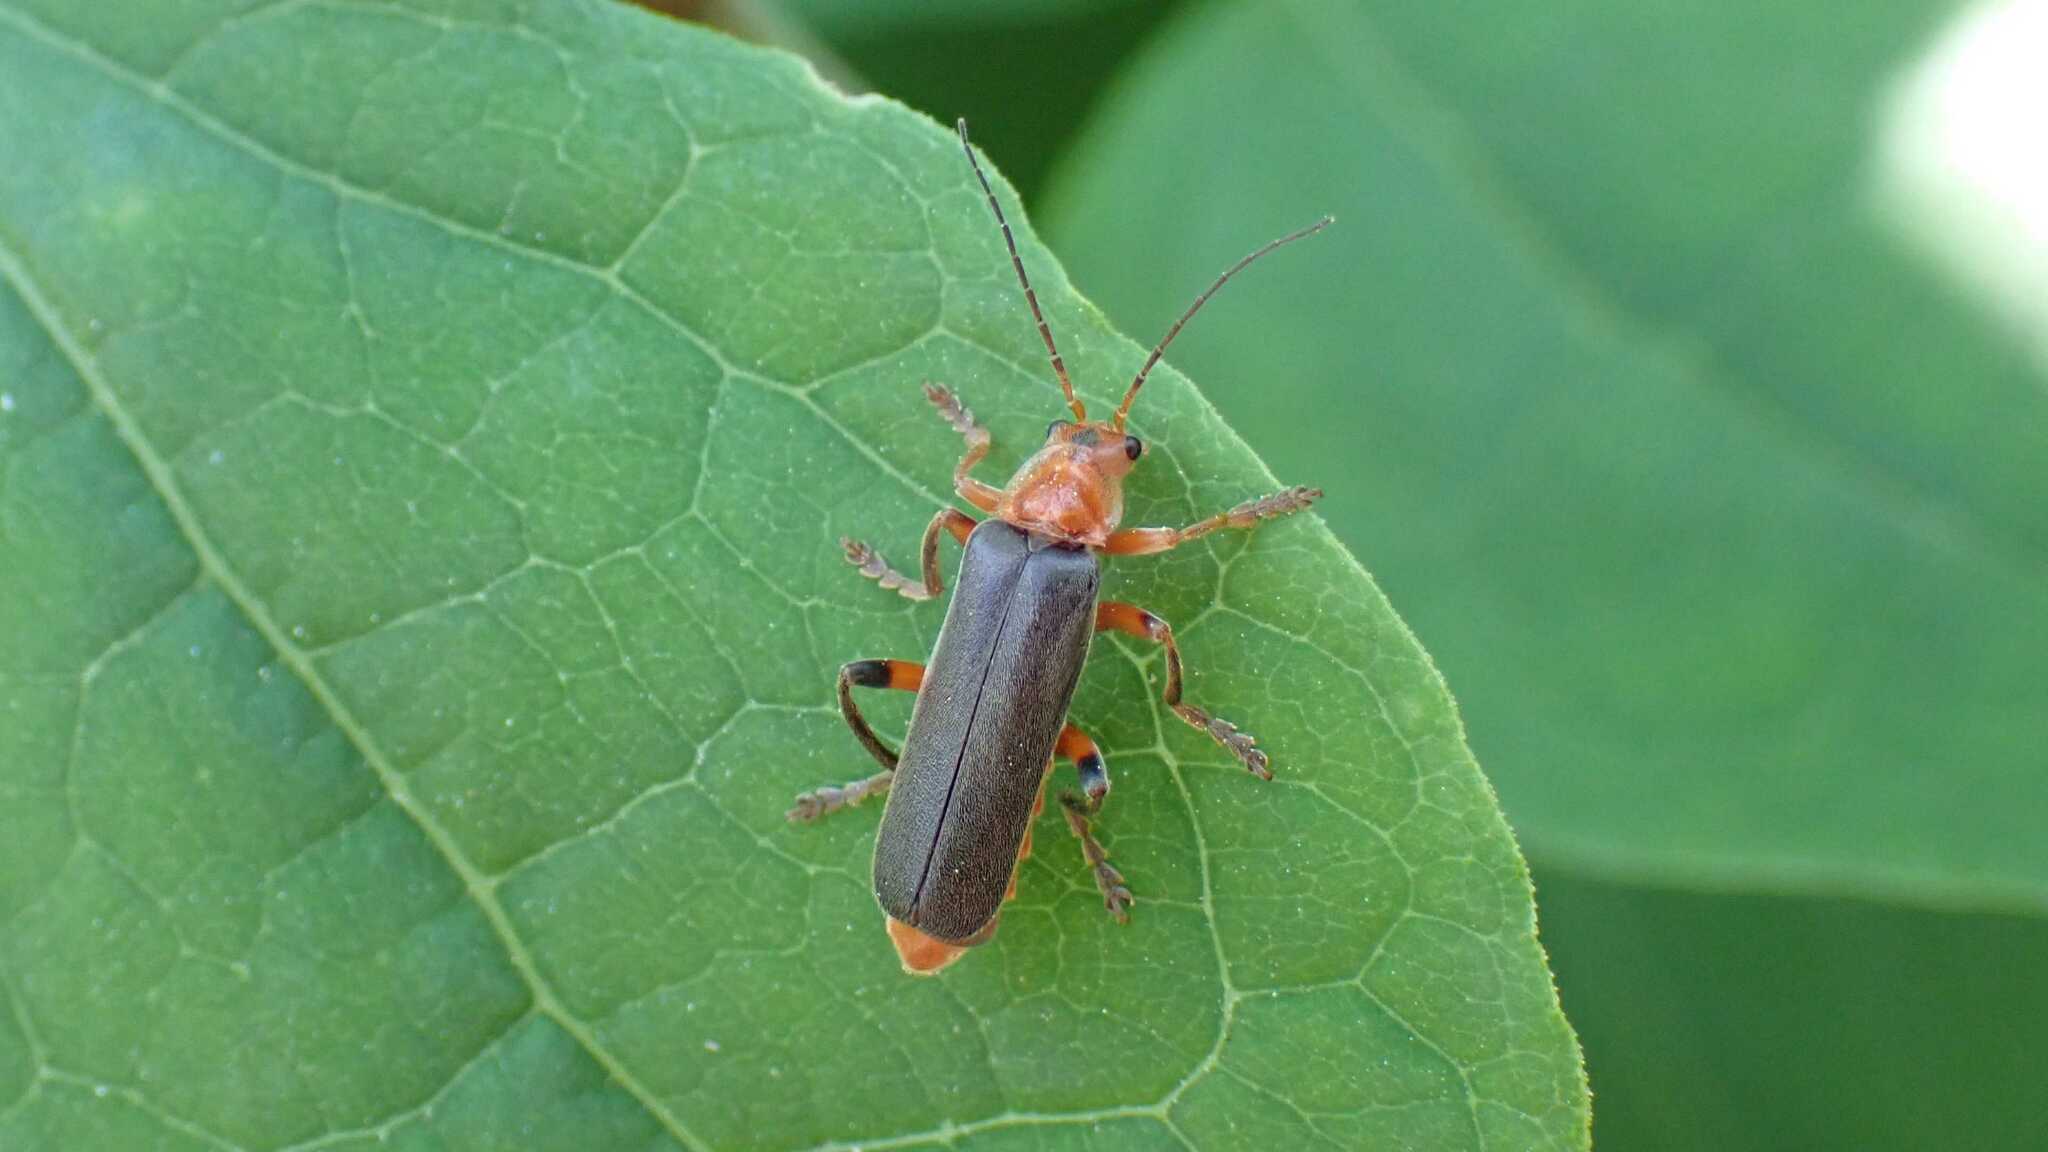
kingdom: Animalia
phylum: Arthropoda
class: Insecta
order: Coleoptera
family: Cantharidae
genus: Cantharis
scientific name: Cantharis livida
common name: Livid soldier beetle
